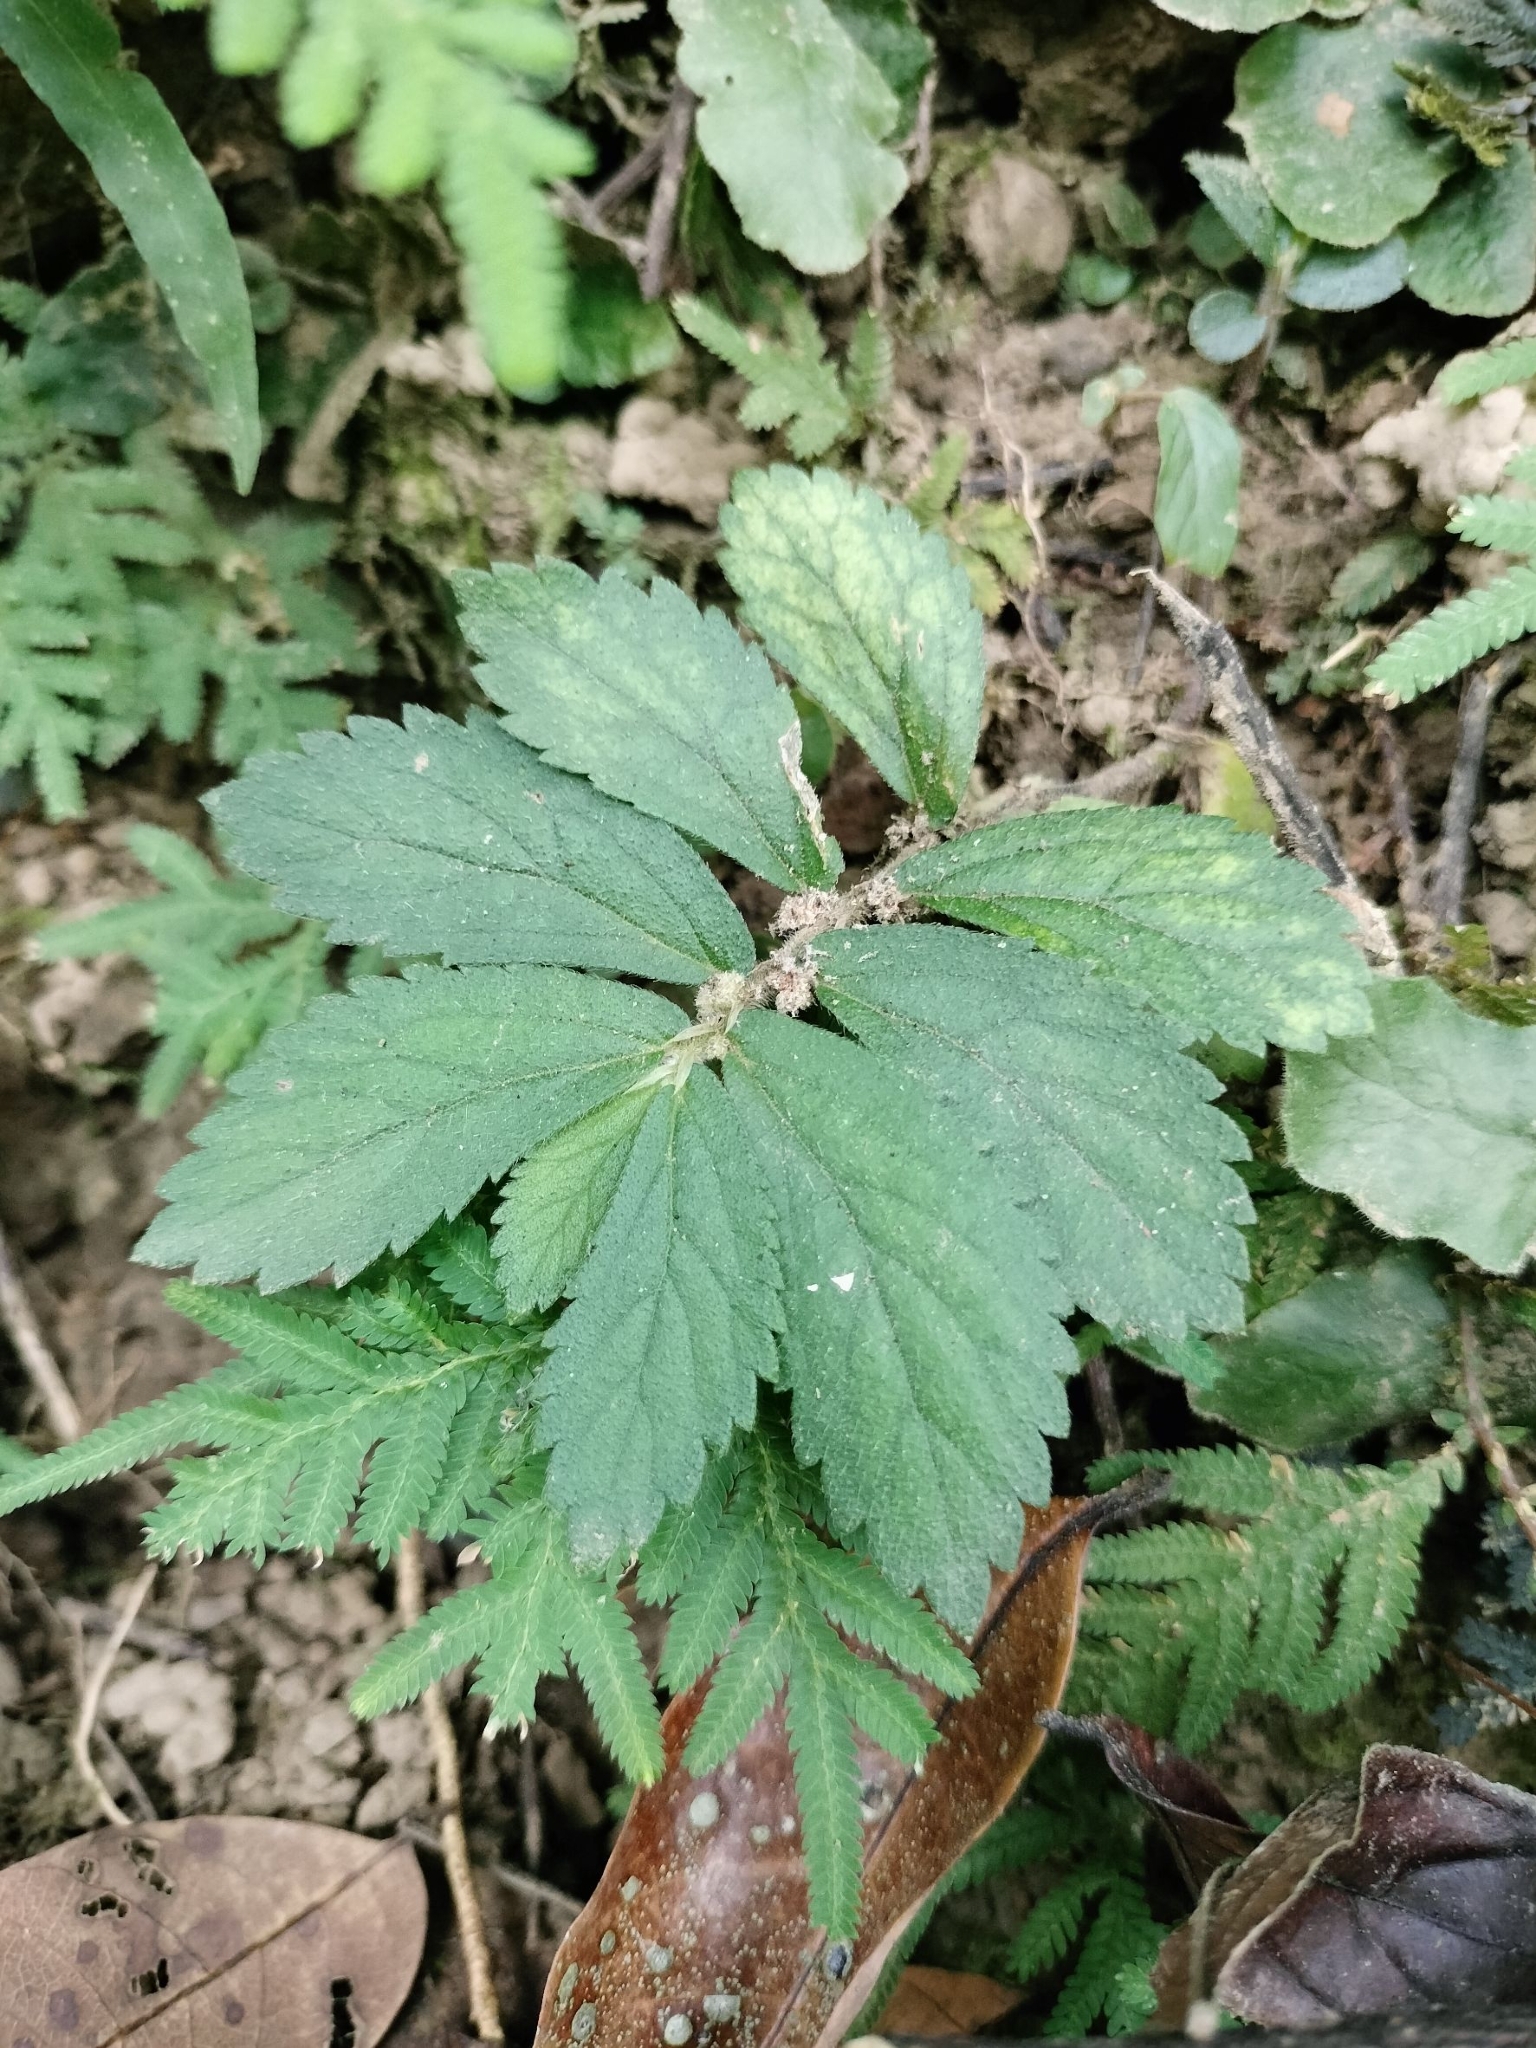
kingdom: Plantae
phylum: Tracheophyta
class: Magnoliopsida
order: Rosales
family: Urticaceae
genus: Elatostema
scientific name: Elatostema villosum
